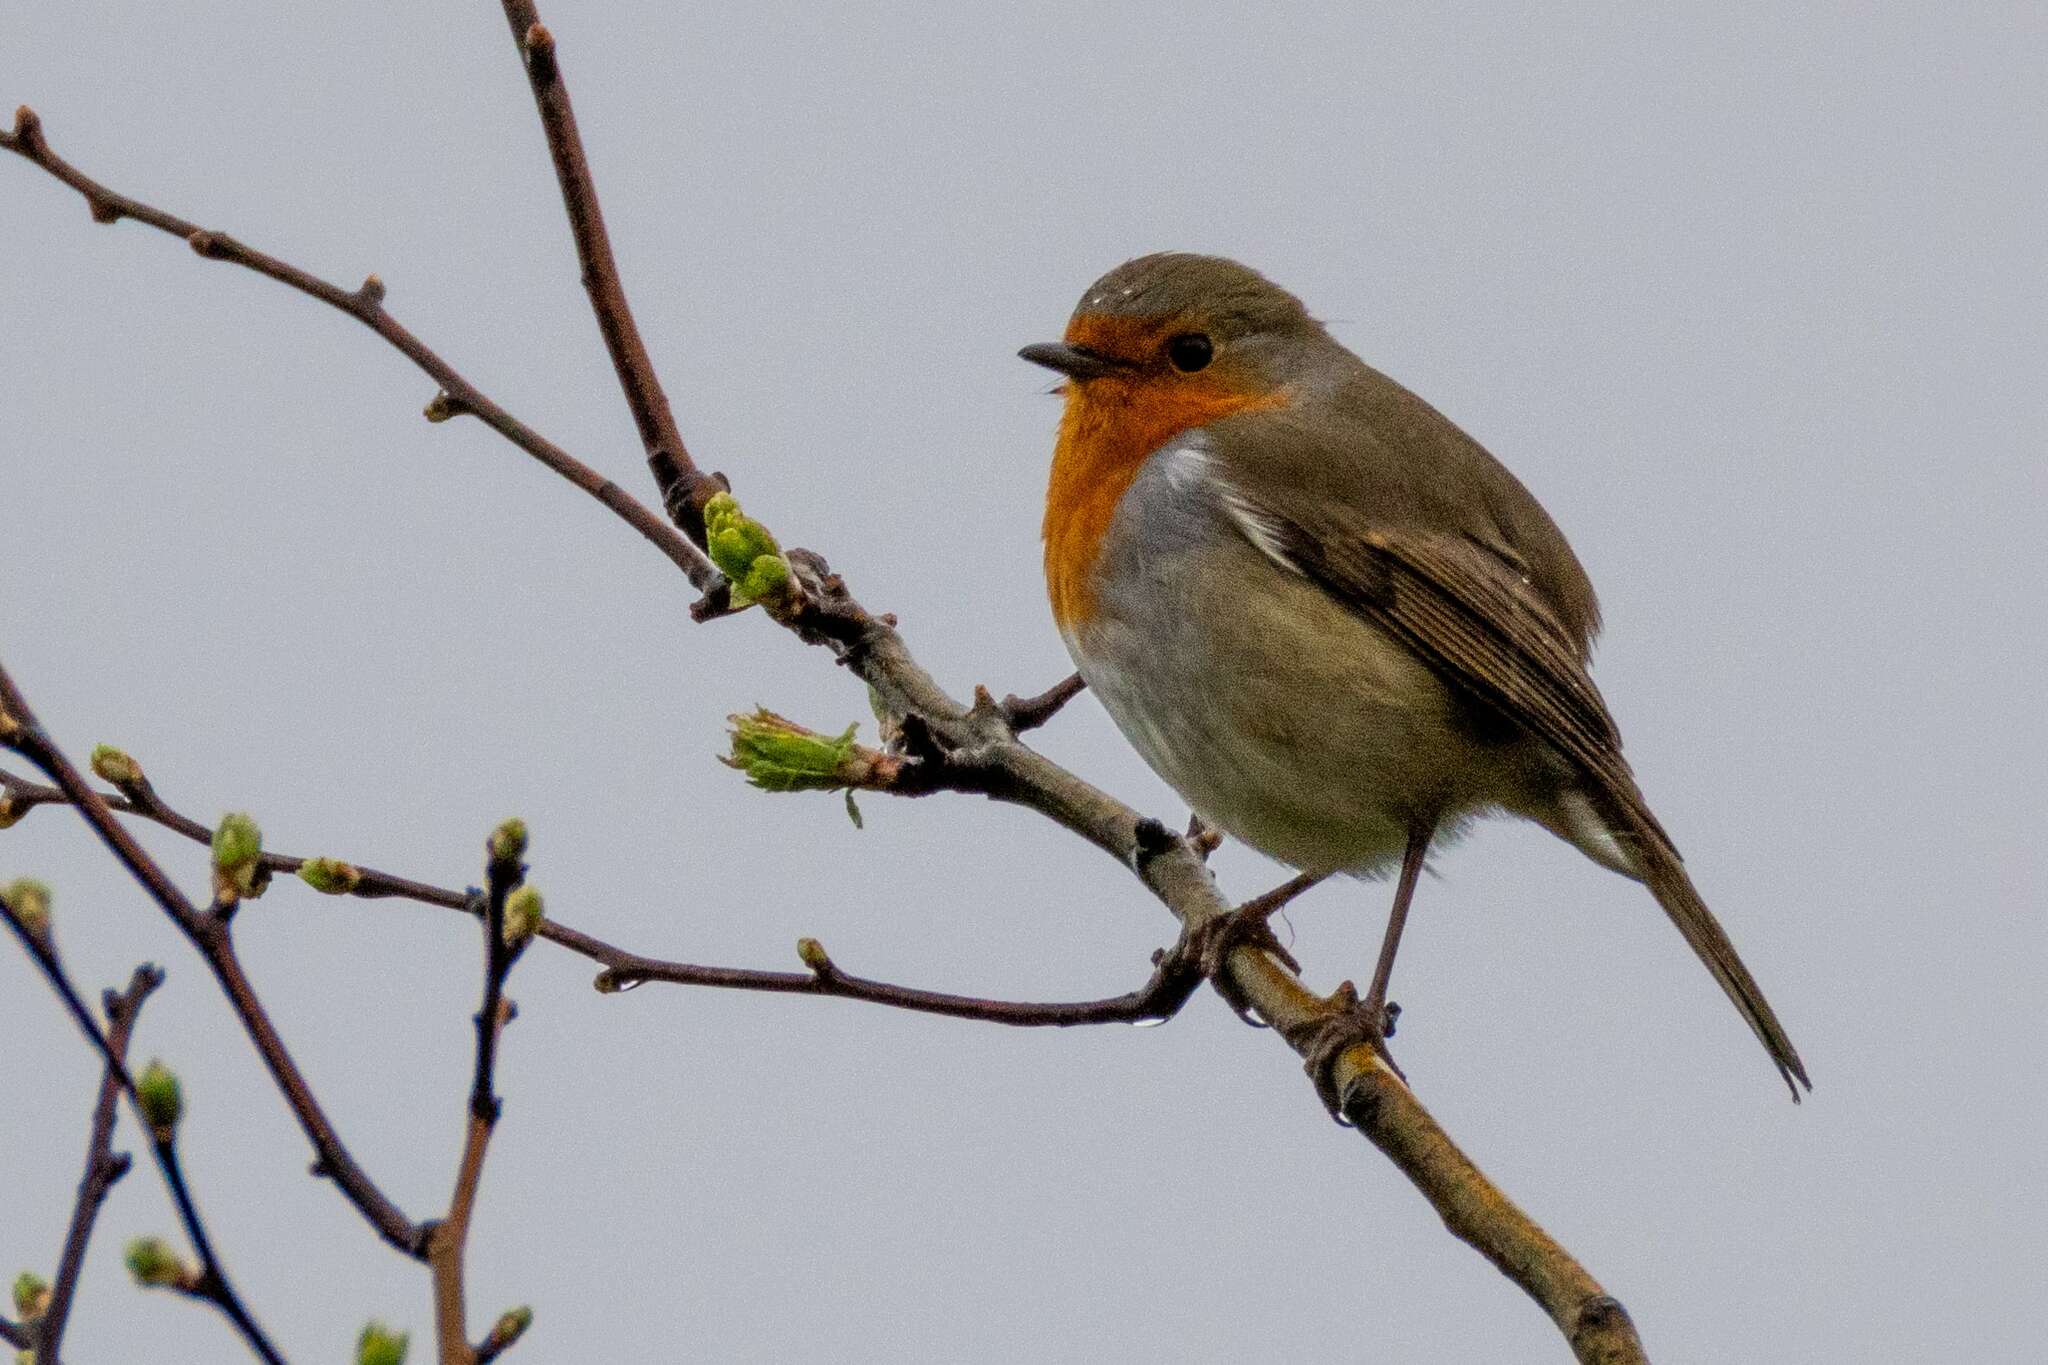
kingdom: Animalia
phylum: Chordata
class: Aves
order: Passeriformes
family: Muscicapidae
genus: Erithacus
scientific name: Erithacus rubecula
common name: European robin
